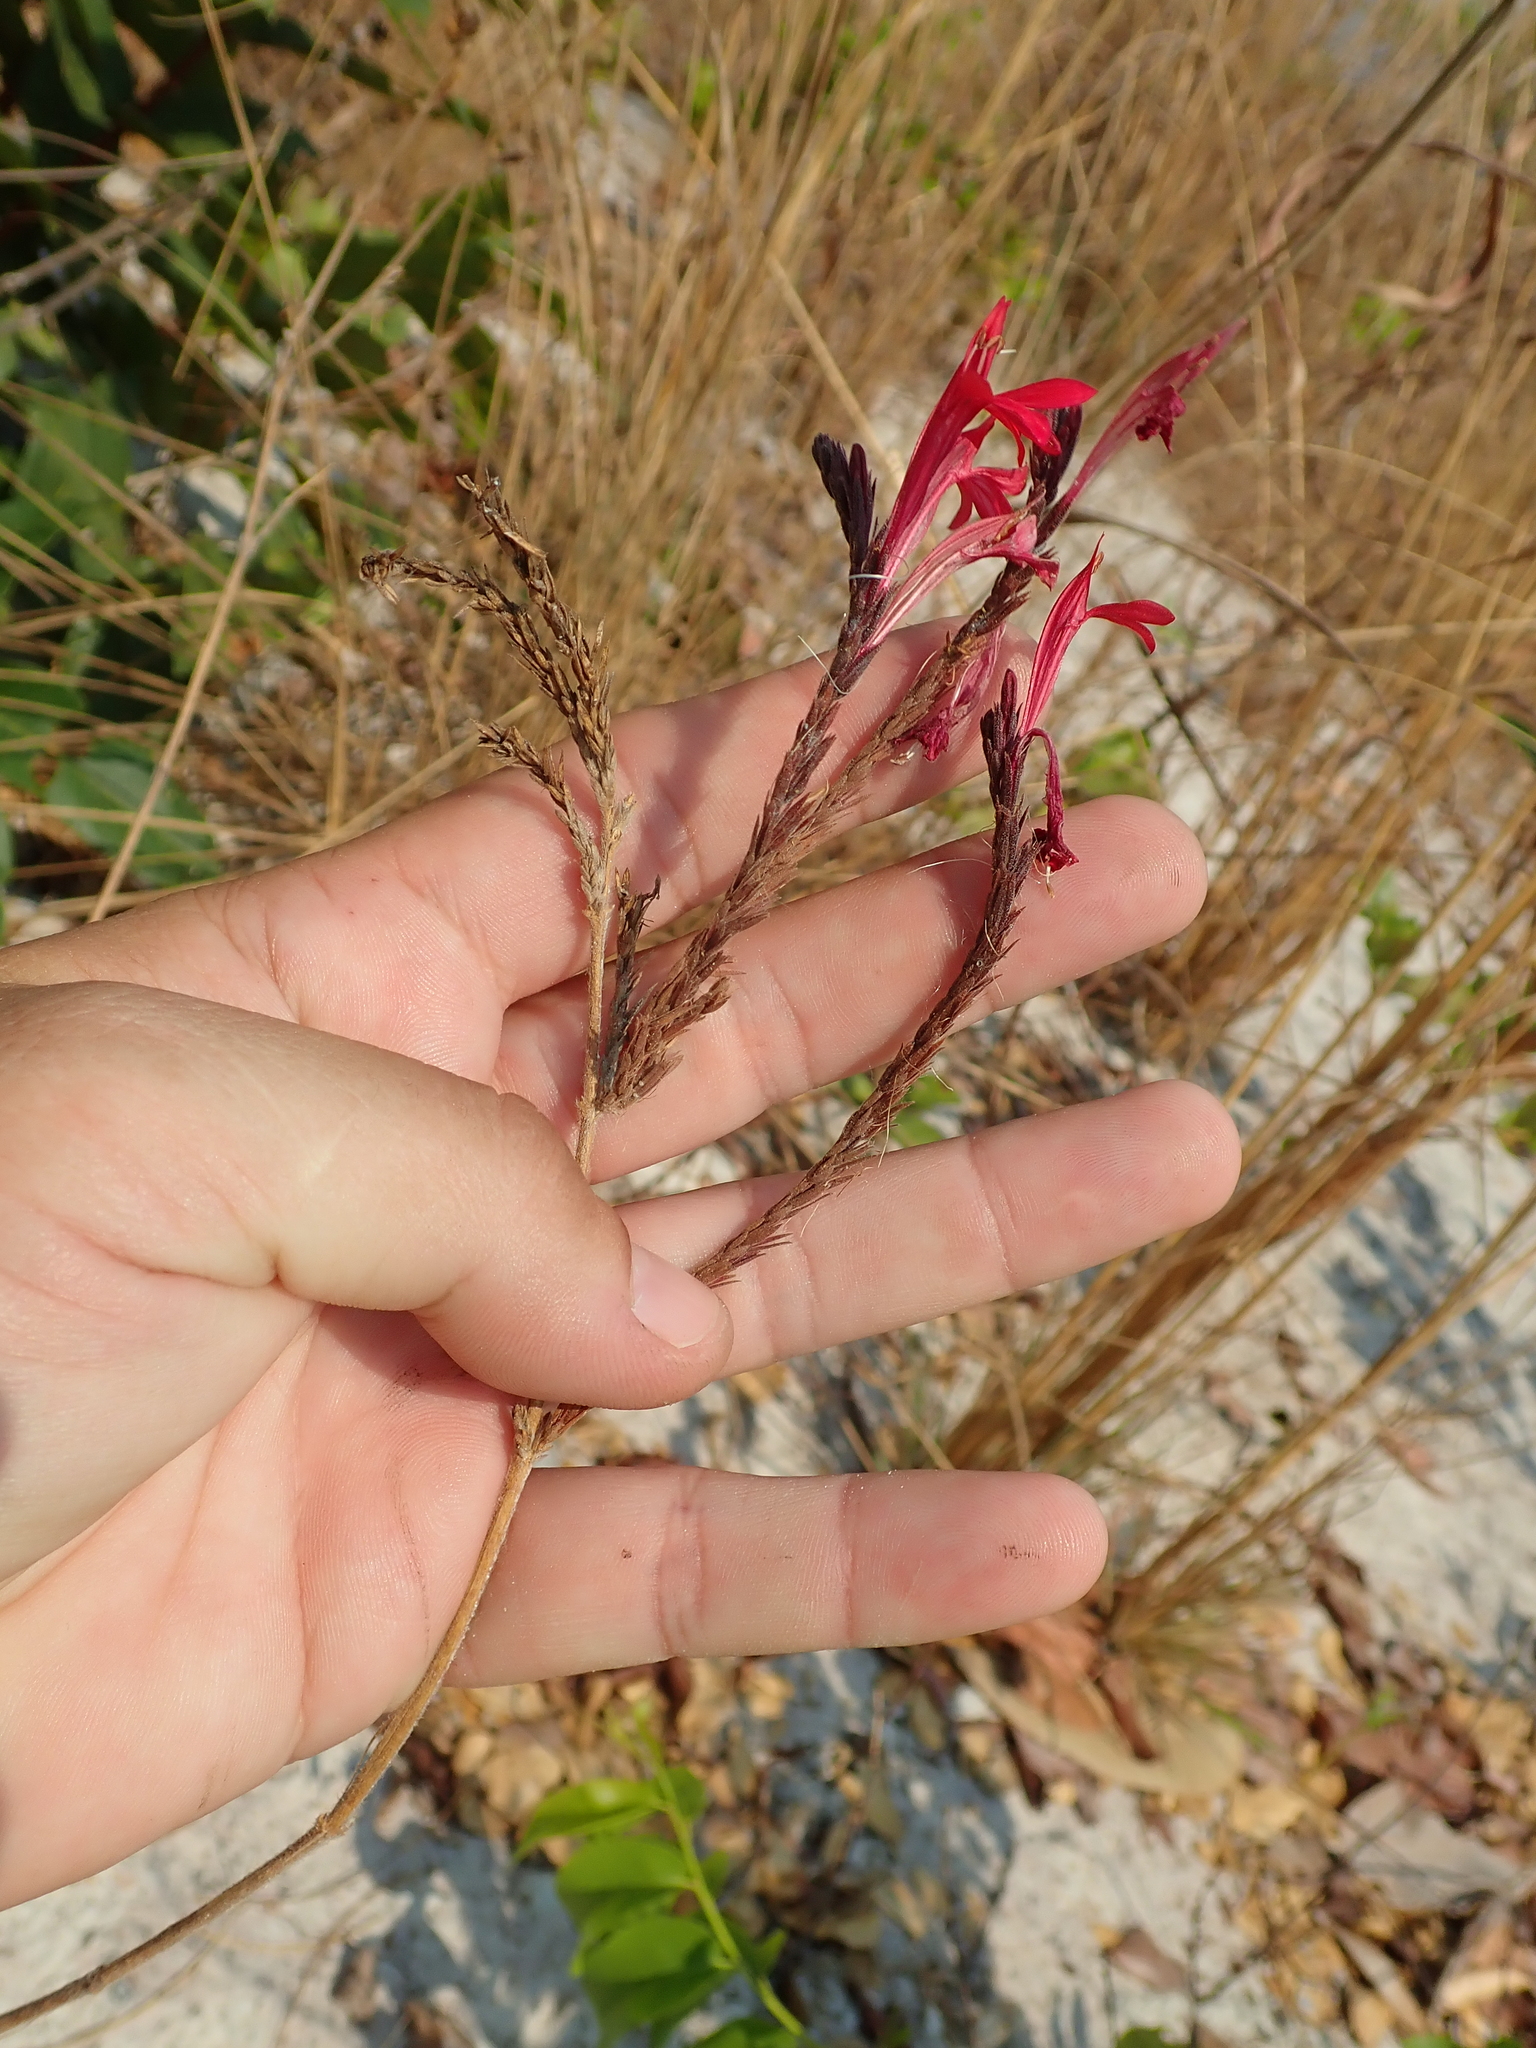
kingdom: Plantae
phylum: Tracheophyta
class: Magnoliopsida
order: Lamiales
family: Acanthaceae
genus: Justicia
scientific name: Justicia lanstyakii
